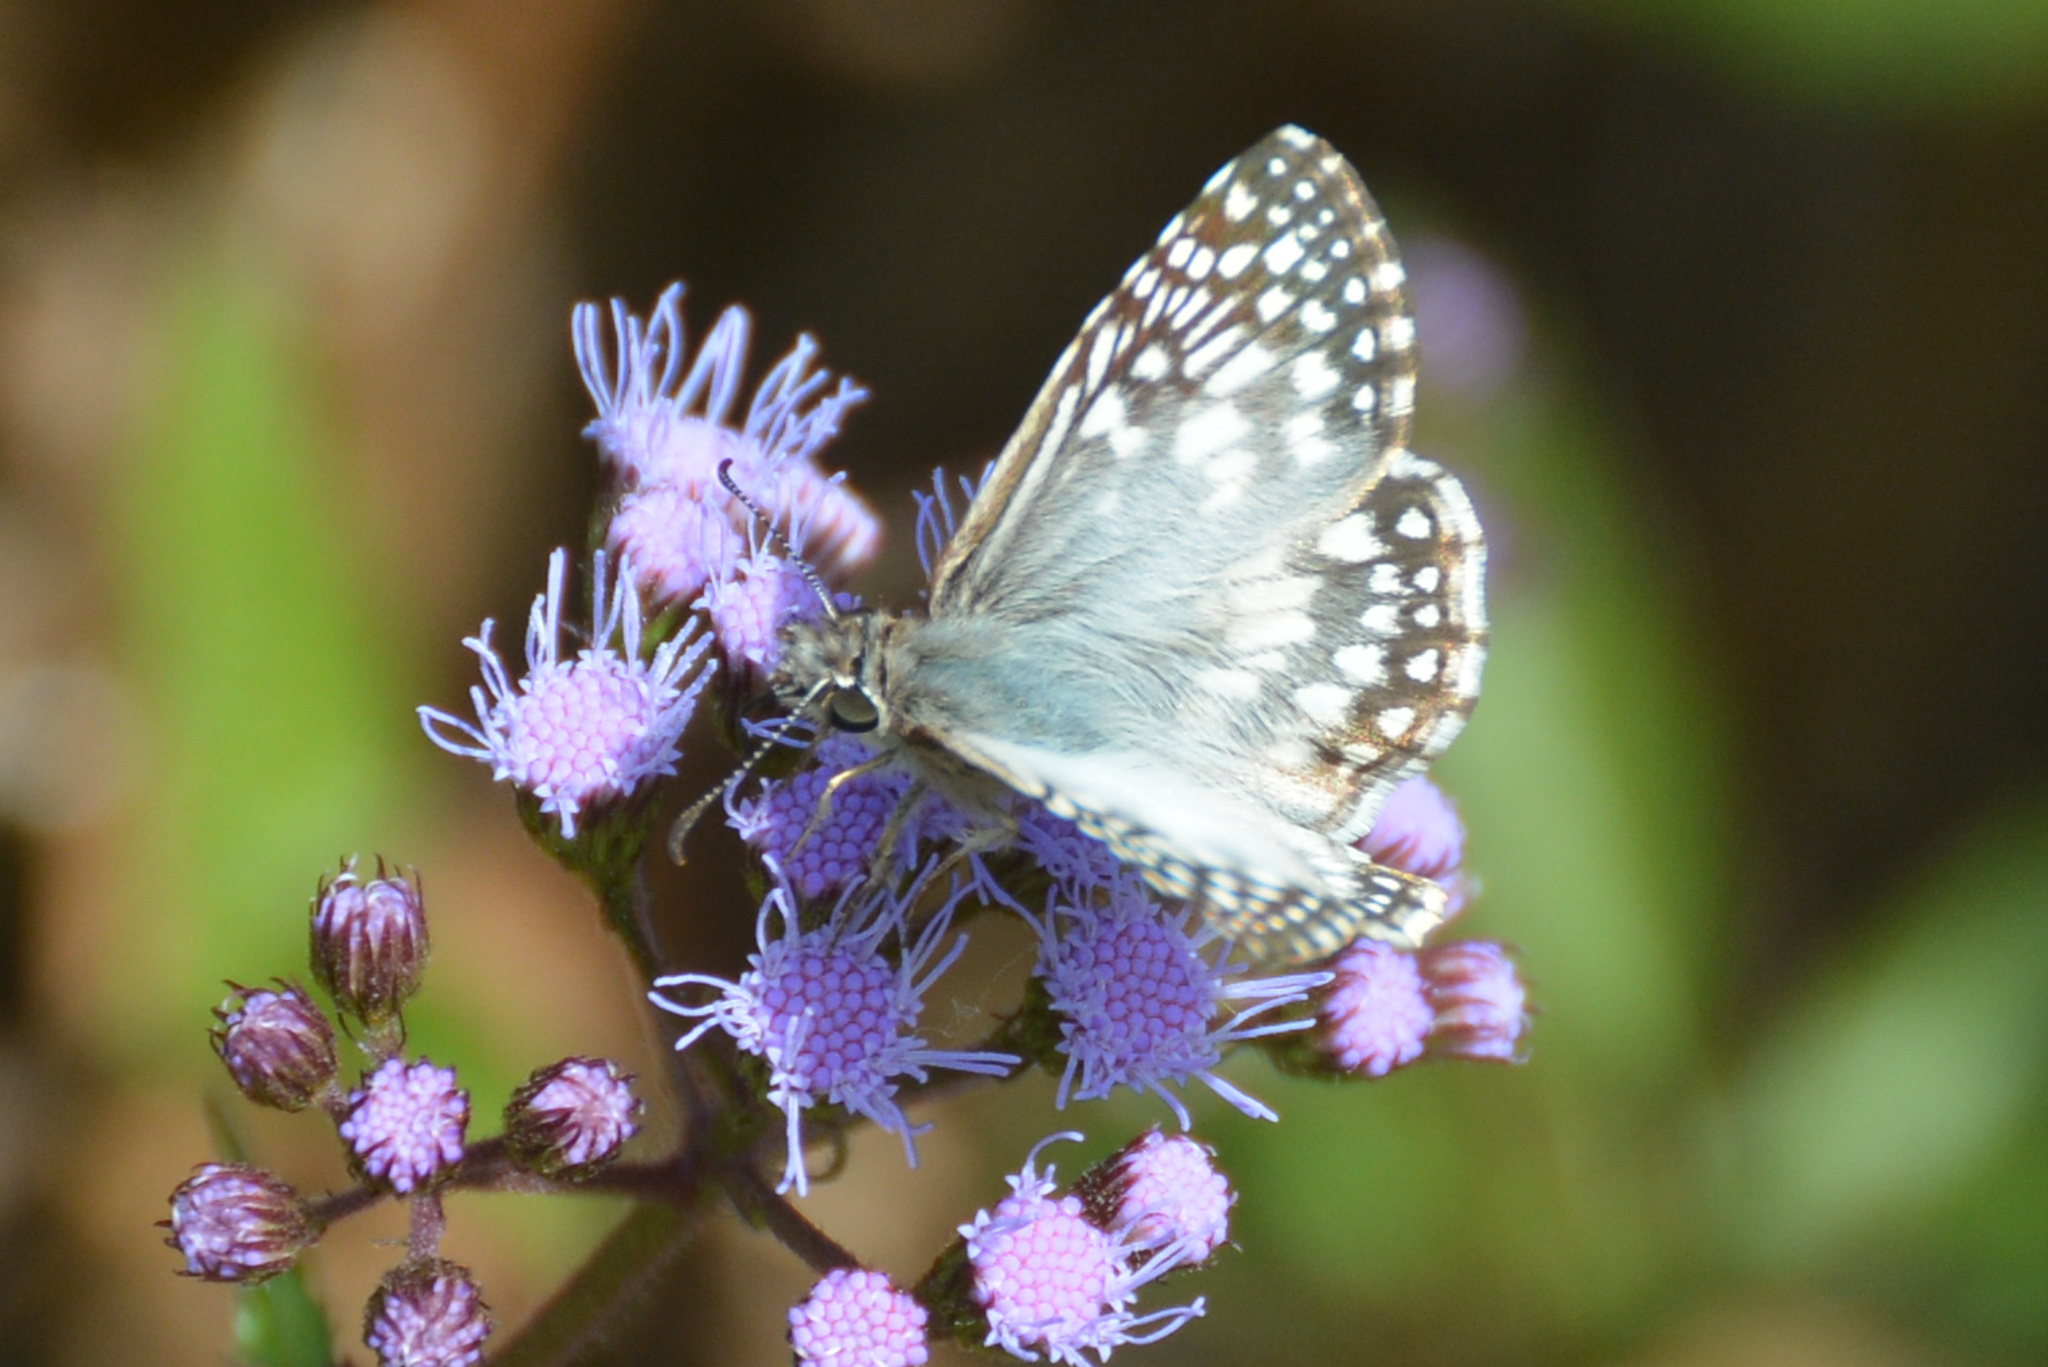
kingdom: Animalia
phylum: Arthropoda
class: Insecta
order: Lepidoptera
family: Hesperiidae
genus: Pyrgus
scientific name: Pyrgus oileus
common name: Tropical checkered-skipper
